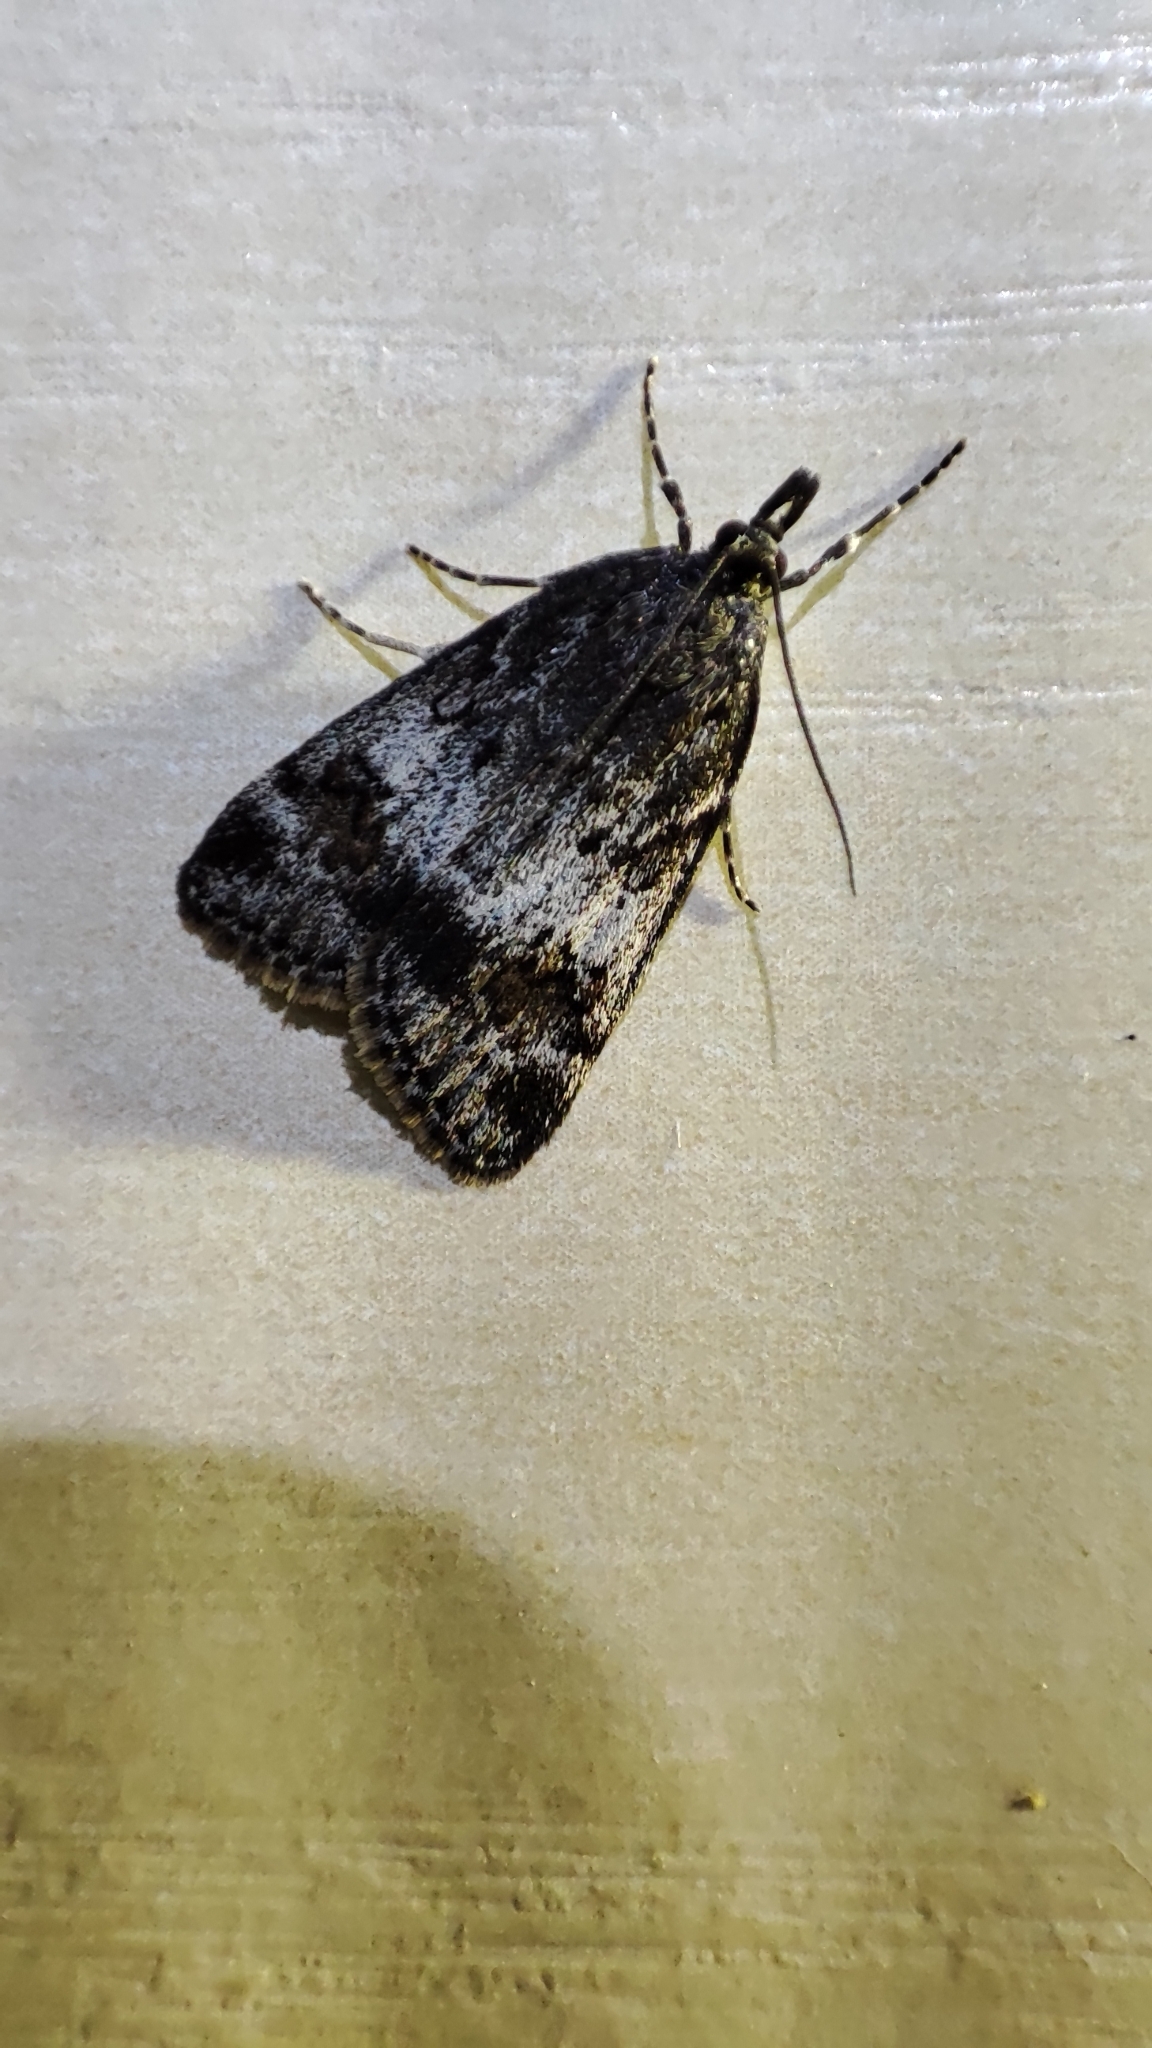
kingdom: Animalia
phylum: Arthropoda
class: Insecta
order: Lepidoptera
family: Crambidae
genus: Gesneria
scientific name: Gesneria centuriella
